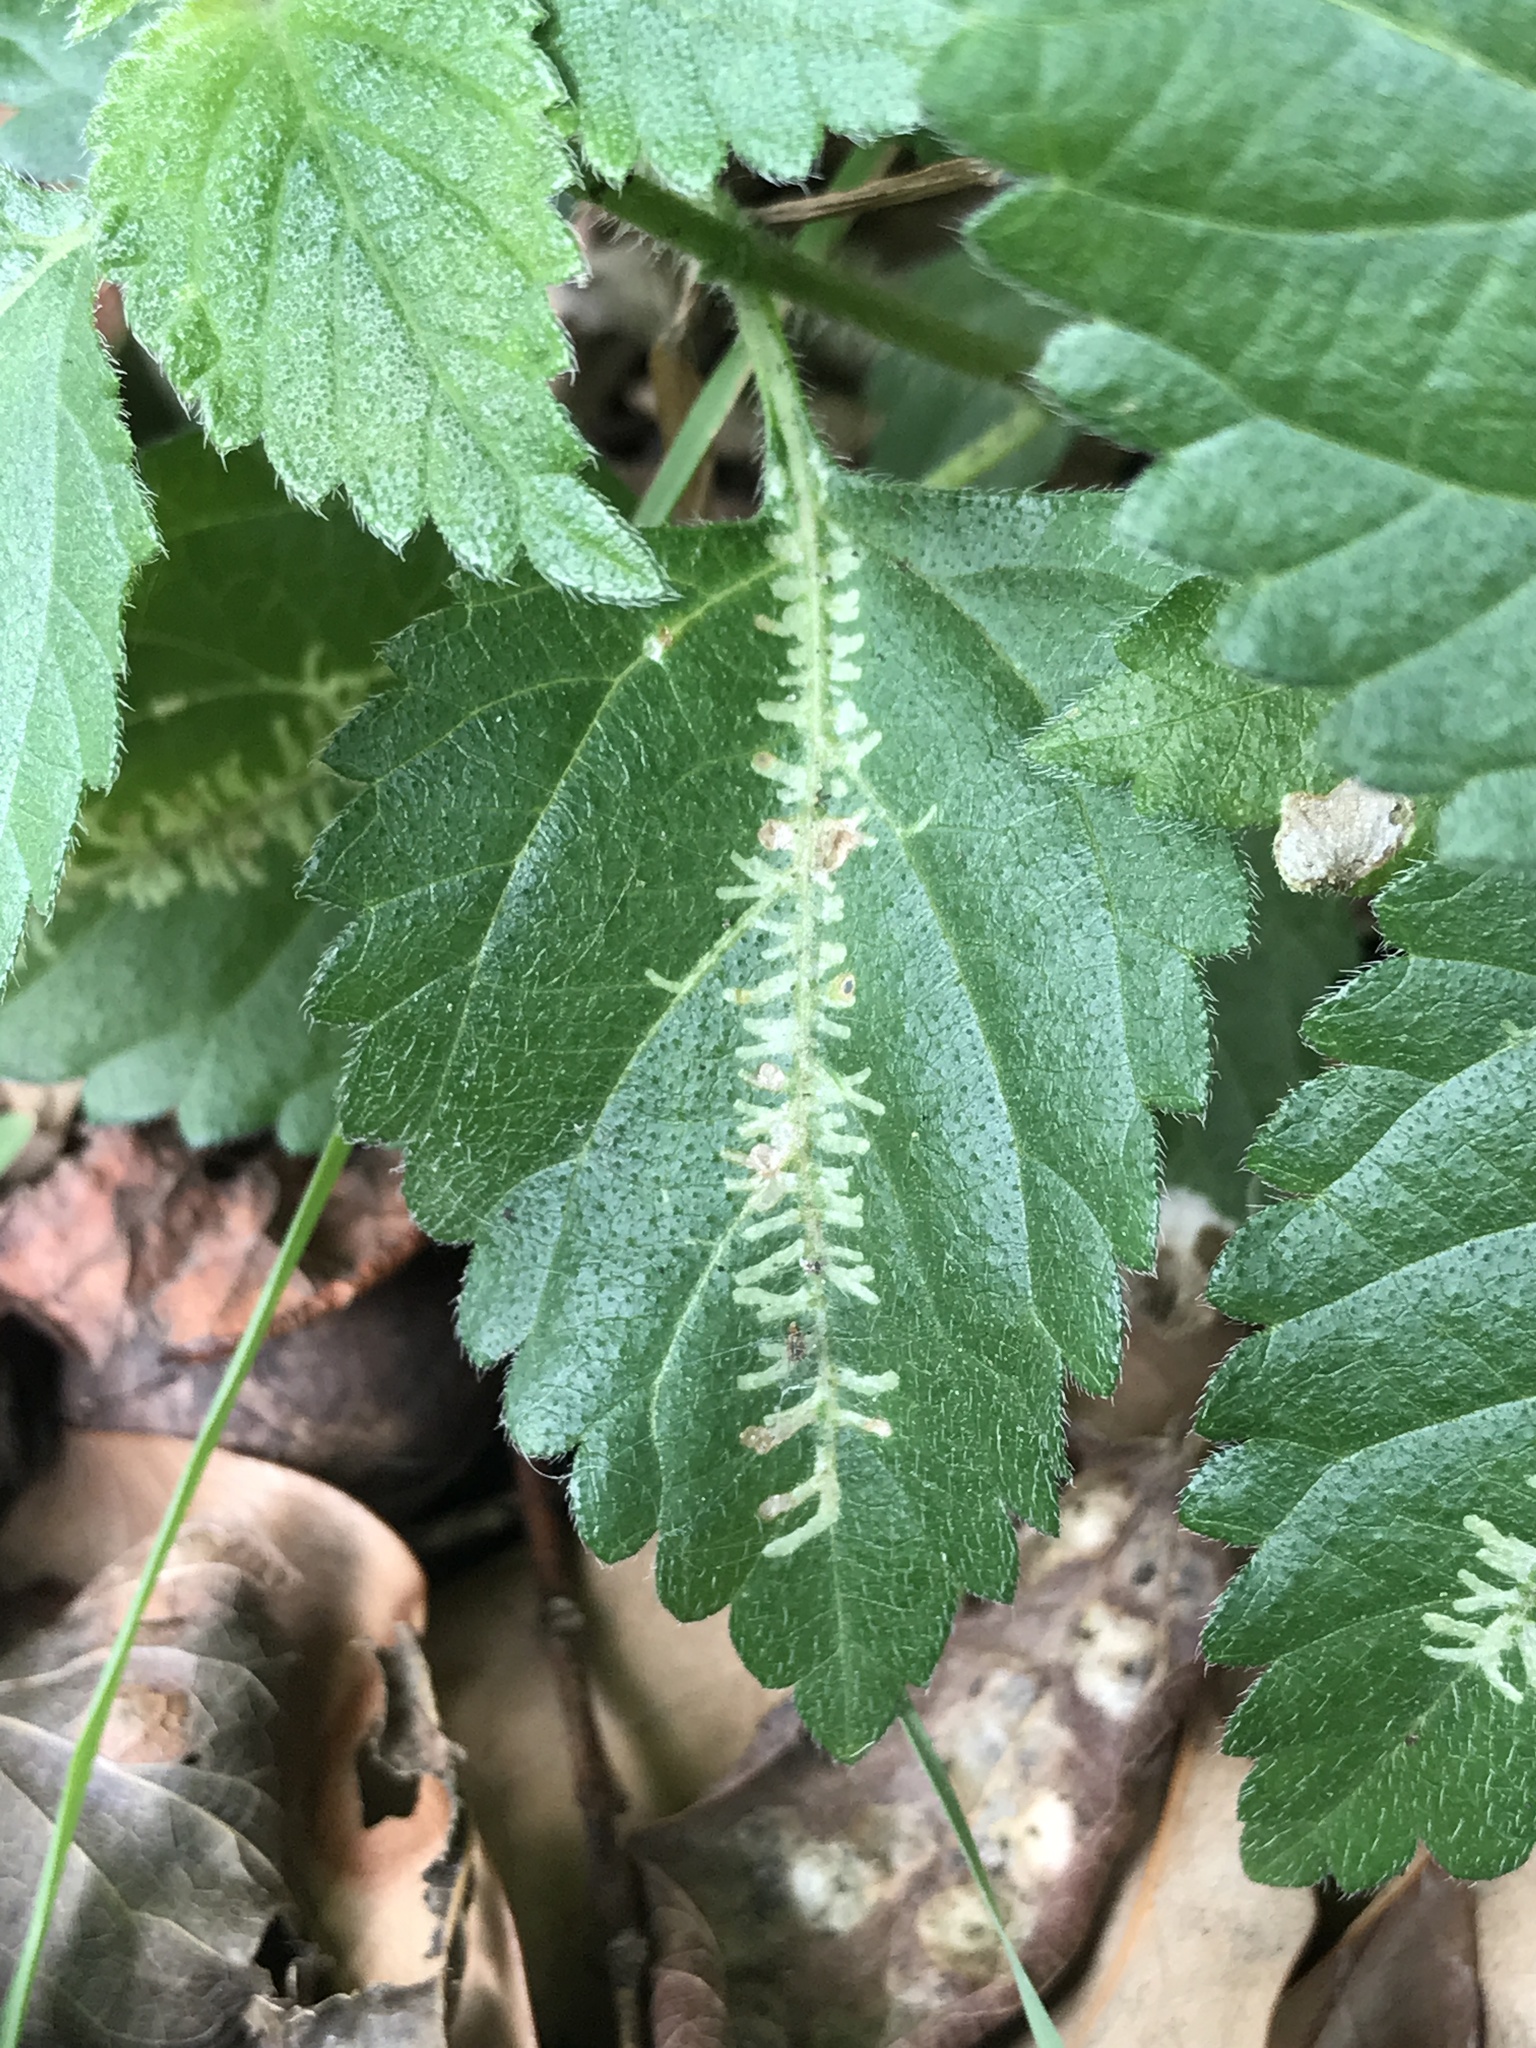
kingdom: Animalia
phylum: Arthropoda
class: Insecta
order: Diptera
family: Agromyzidae
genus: Ophiomyia
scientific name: Ophiomyia camarae
